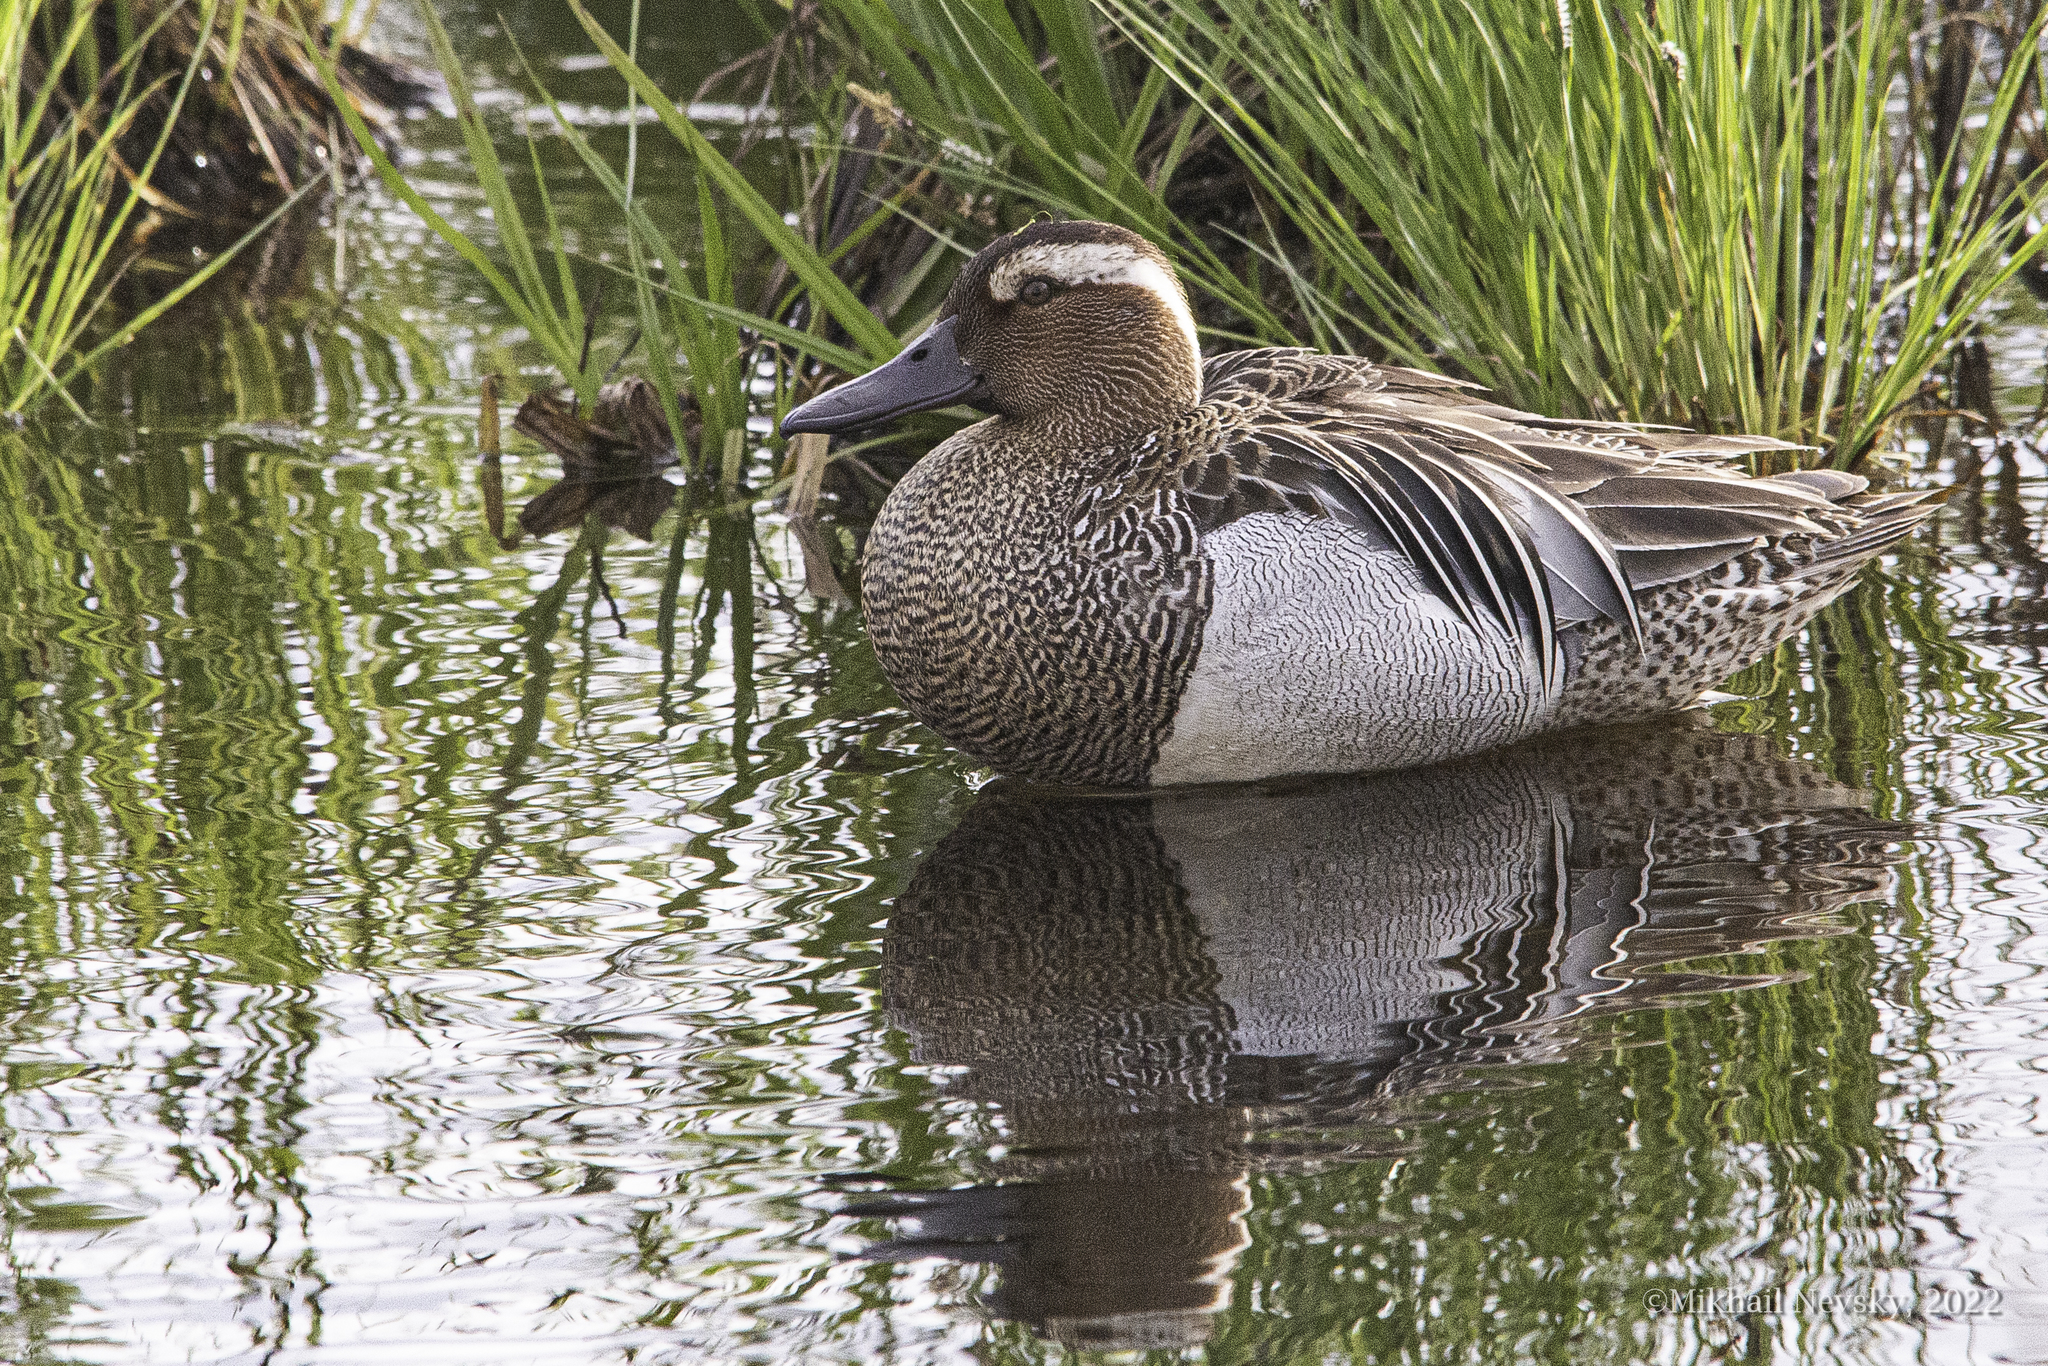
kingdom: Animalia
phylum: Chordata
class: Aves
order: Anseriformes
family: Anatidae
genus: Spatula
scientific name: Spatula querquedula
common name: Garganey
